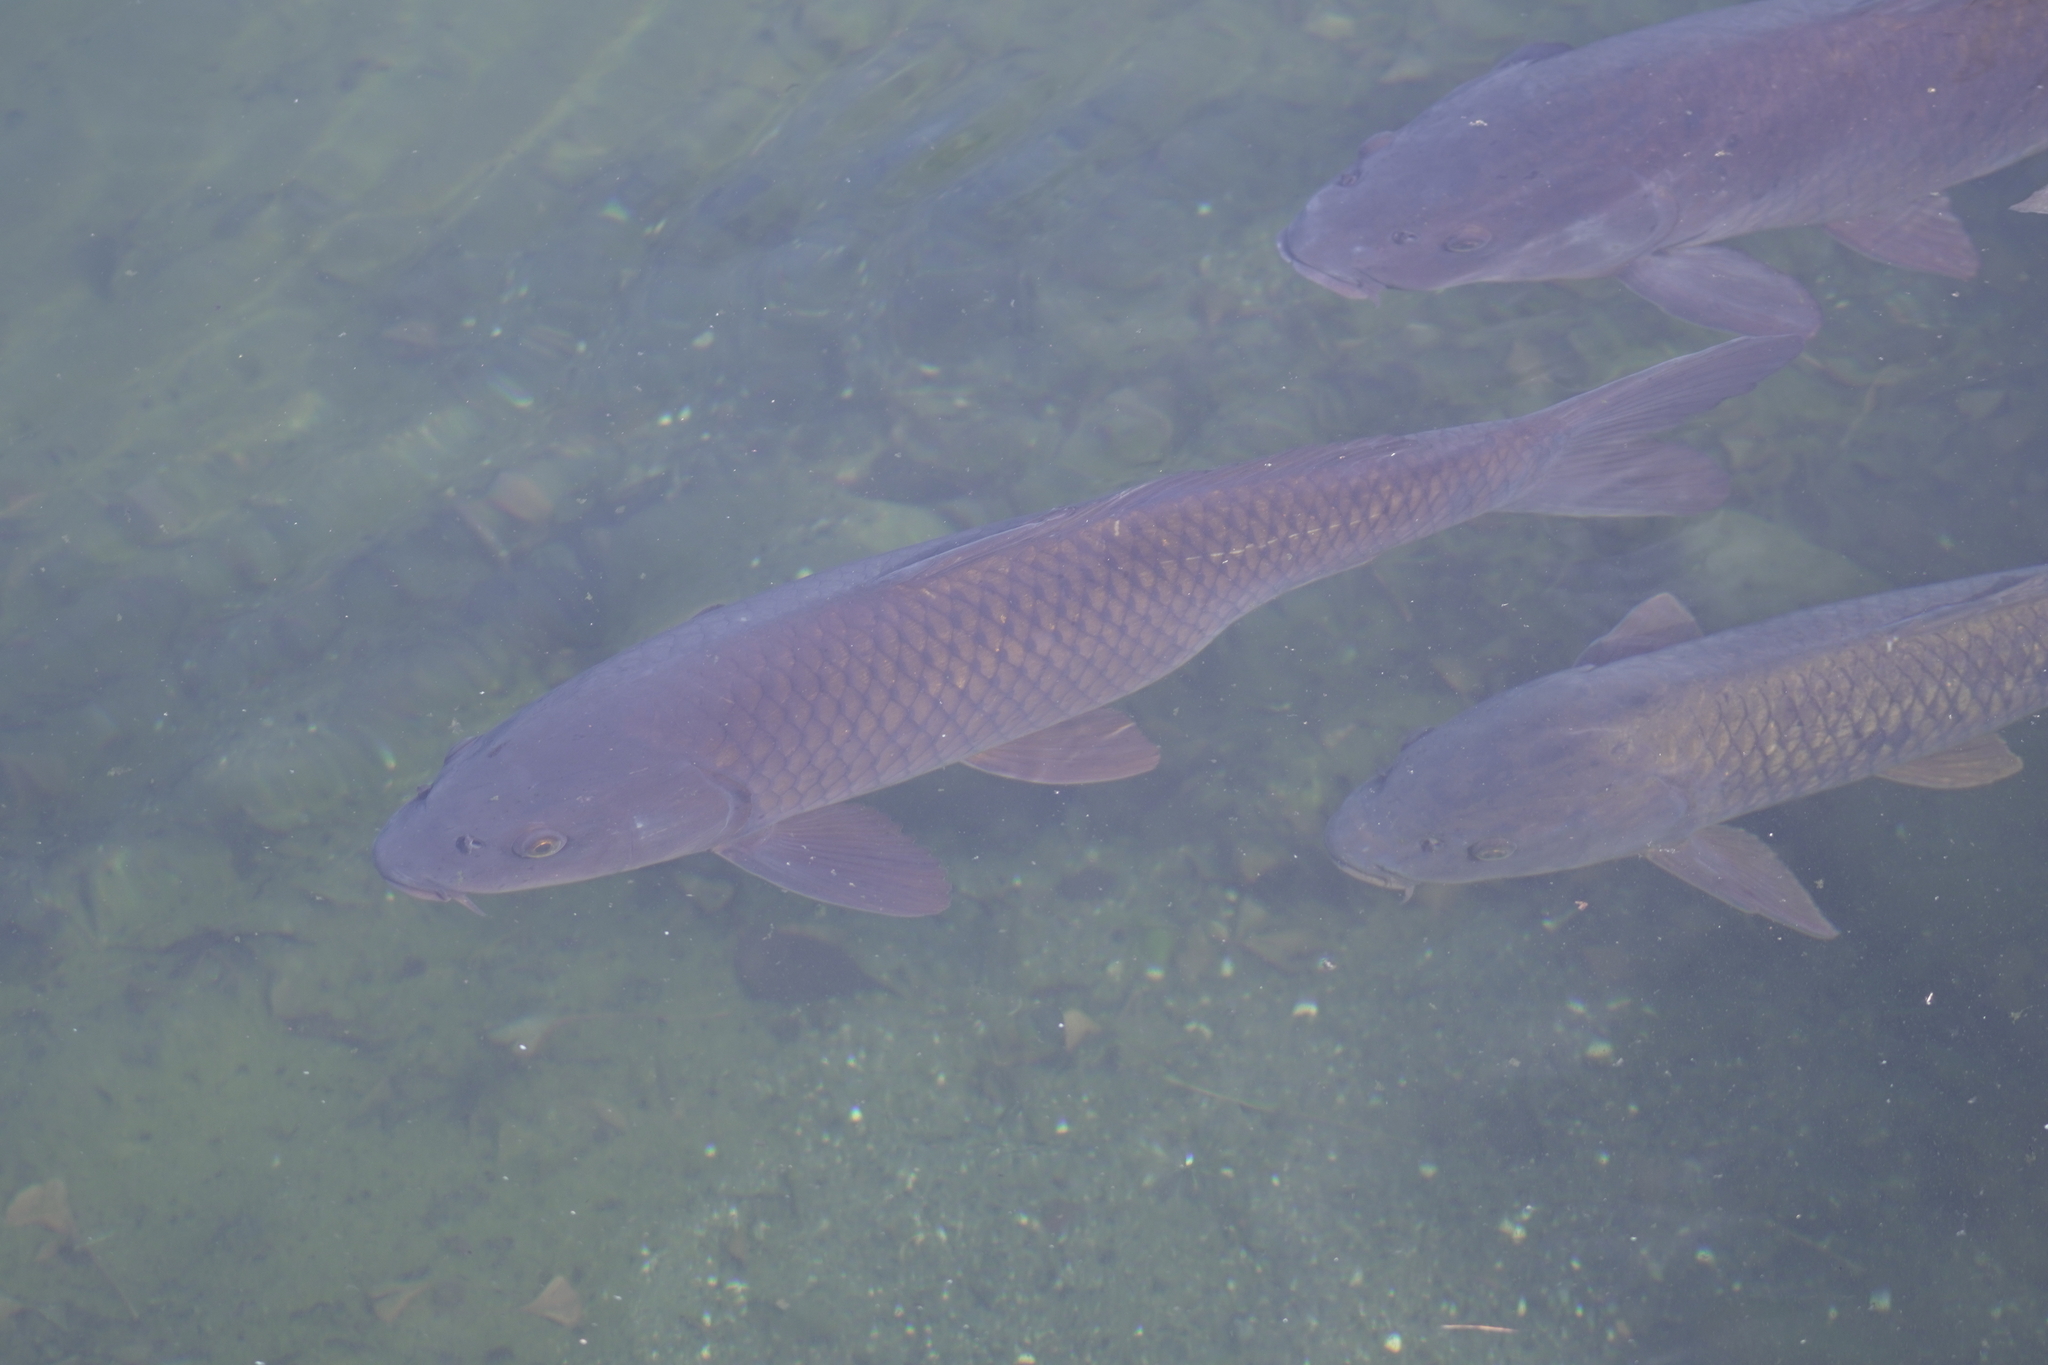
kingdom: Animalia
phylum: Chordata
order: Cypriniformes
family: Cyprinidae
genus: Cyprinus
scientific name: Cyprinus carpio
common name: Common carp
